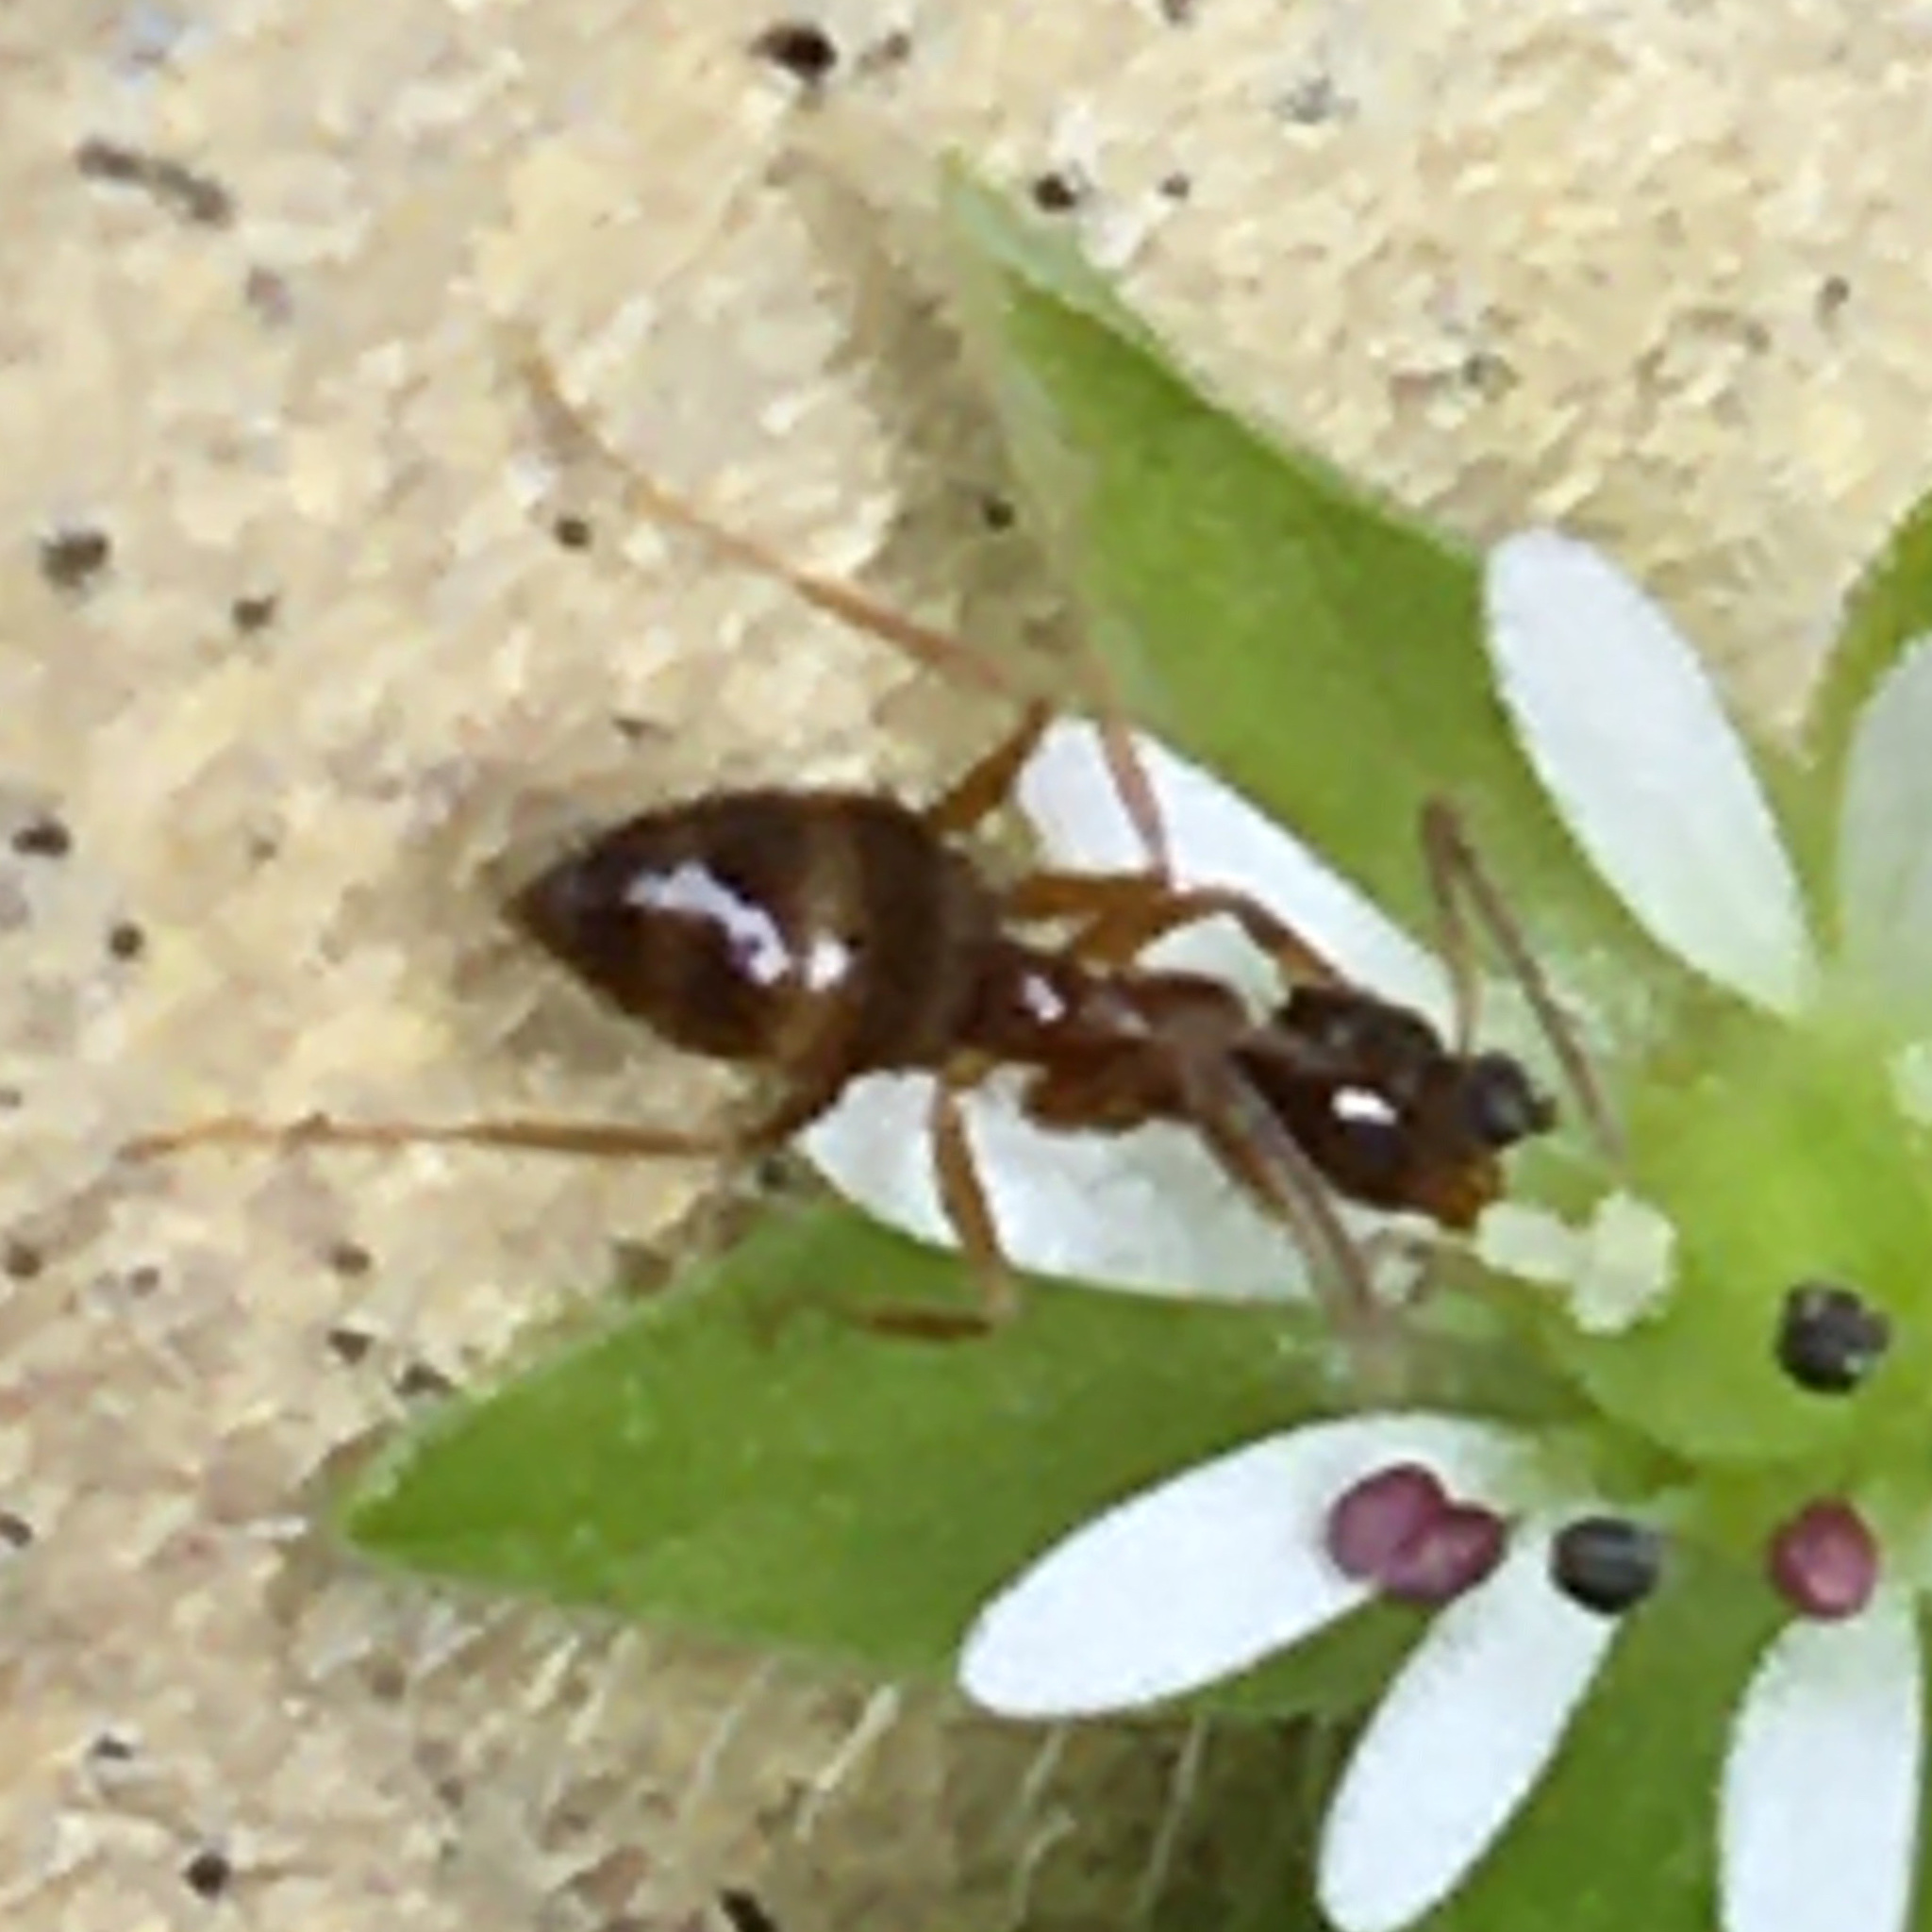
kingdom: Animalia
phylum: Arthropoda
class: Insecta
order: Hymenoptera
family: Formicidae
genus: Prenolepis
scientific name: Prenolepis imparis
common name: Small honey ant
